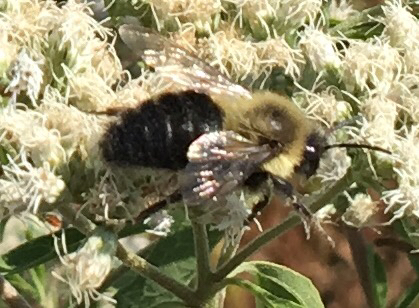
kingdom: Animalia
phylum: Arthropoda
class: Insecta
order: Hymenoptera
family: Apidae
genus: Bombus
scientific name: Bombus impatiens
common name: Common eastern bumble bee
